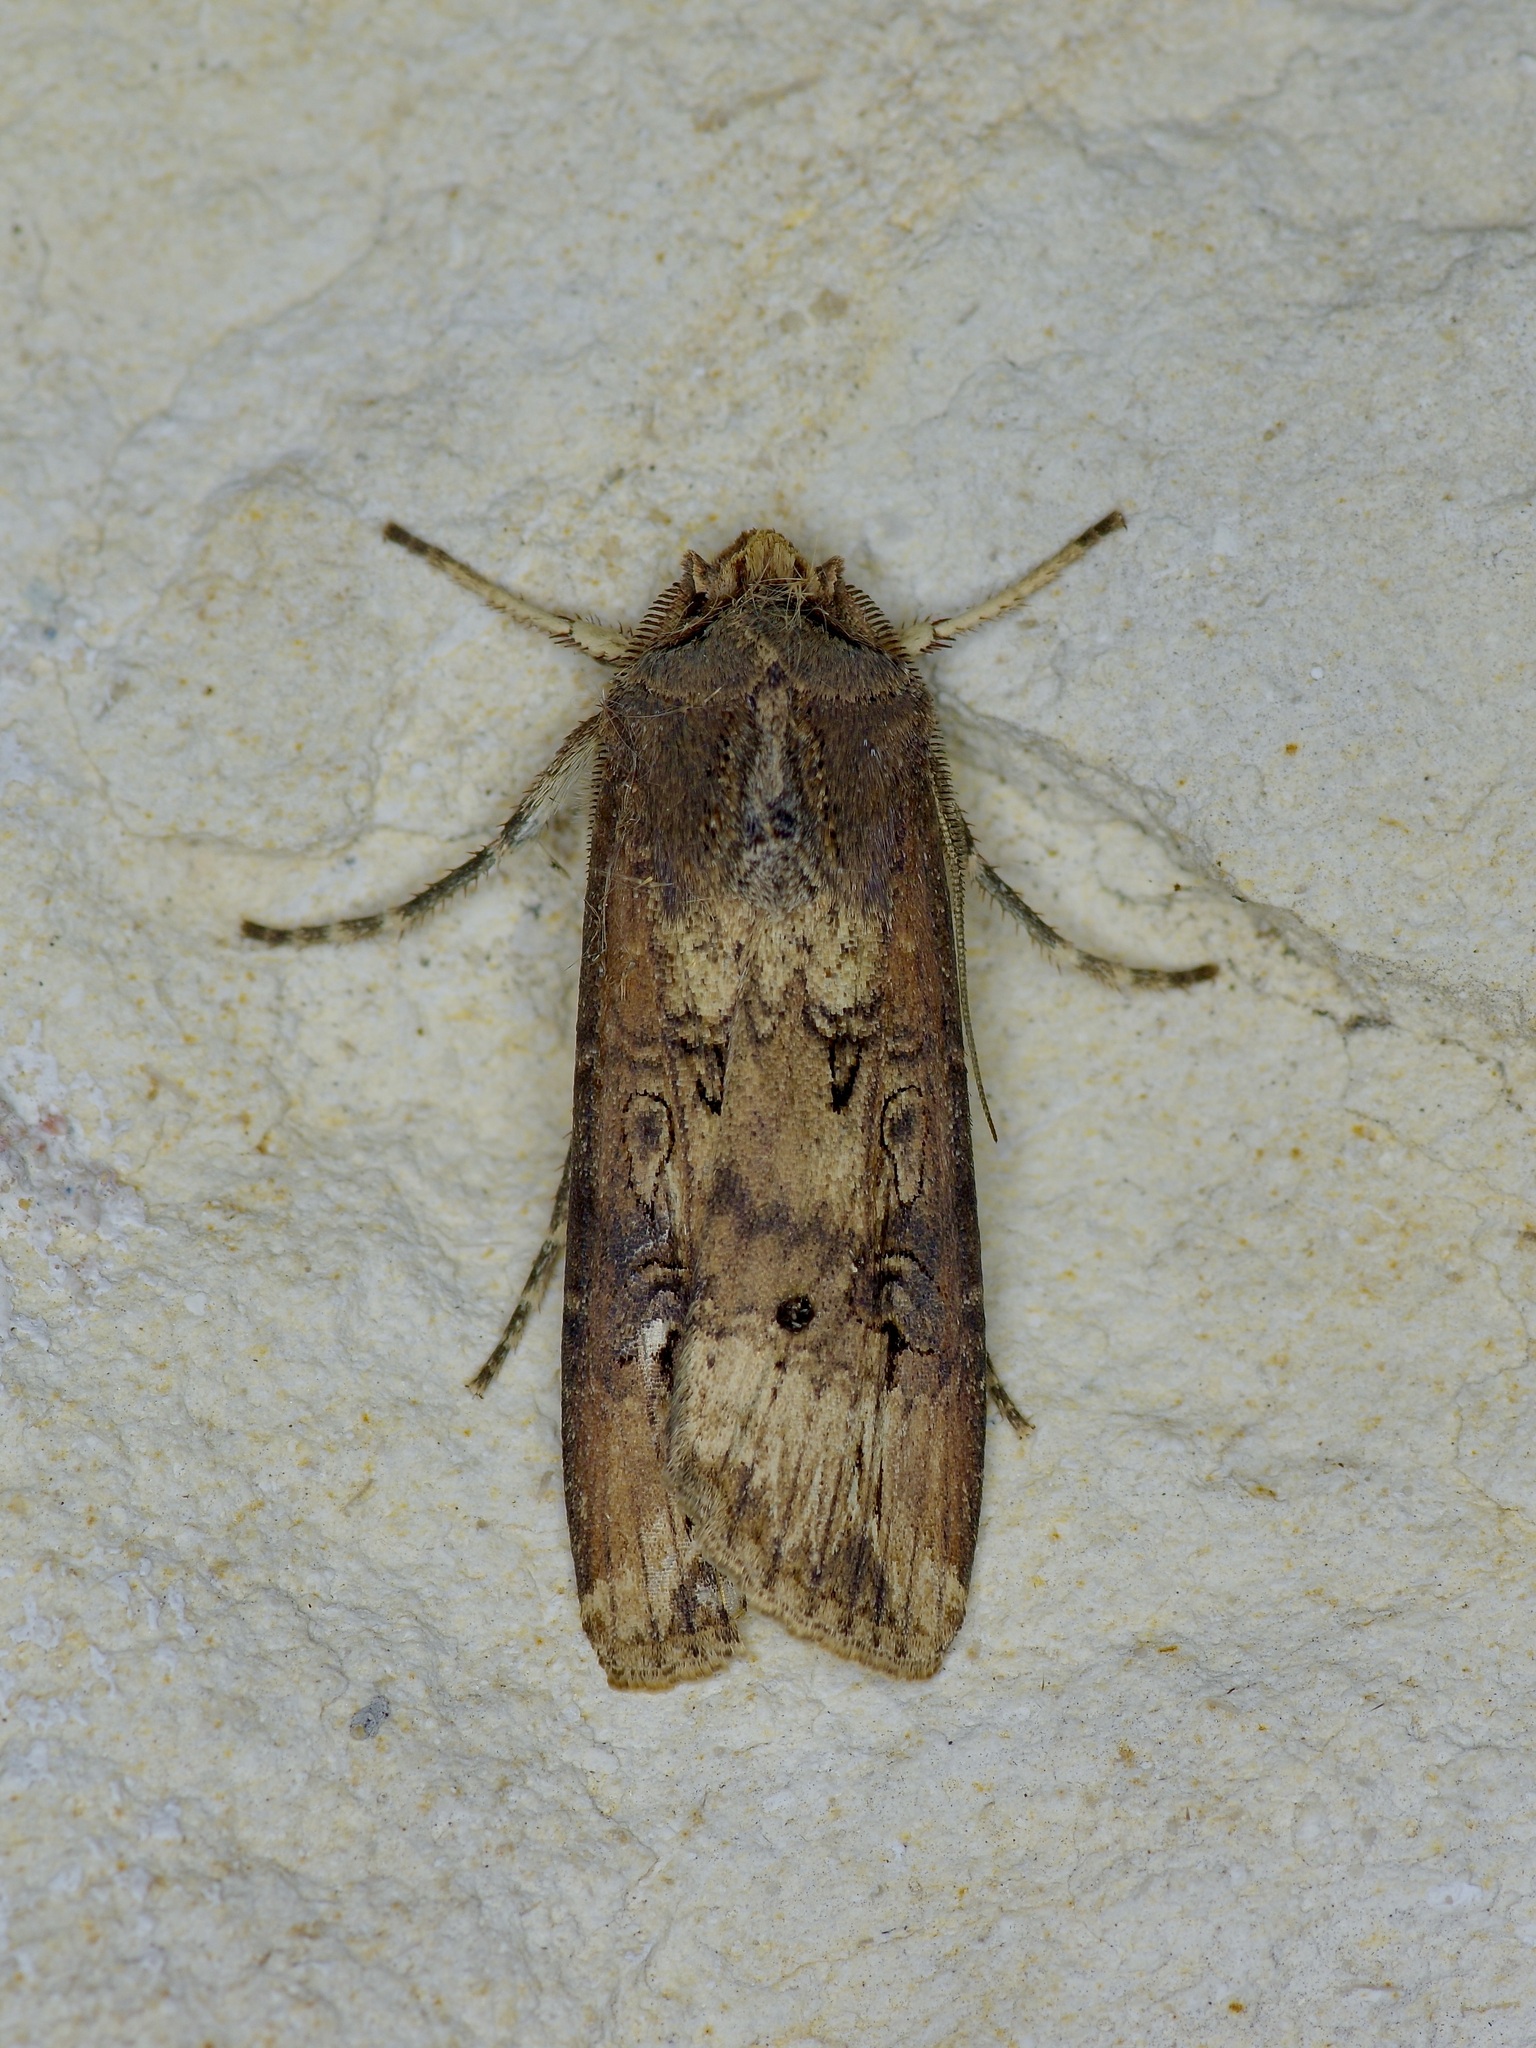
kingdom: Animalia
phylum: Arthropoda
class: Insecta
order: Lepidoptera
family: Noctuidae
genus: Agrotis
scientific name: Agrotis ipsilon
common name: Dark sword-grass
